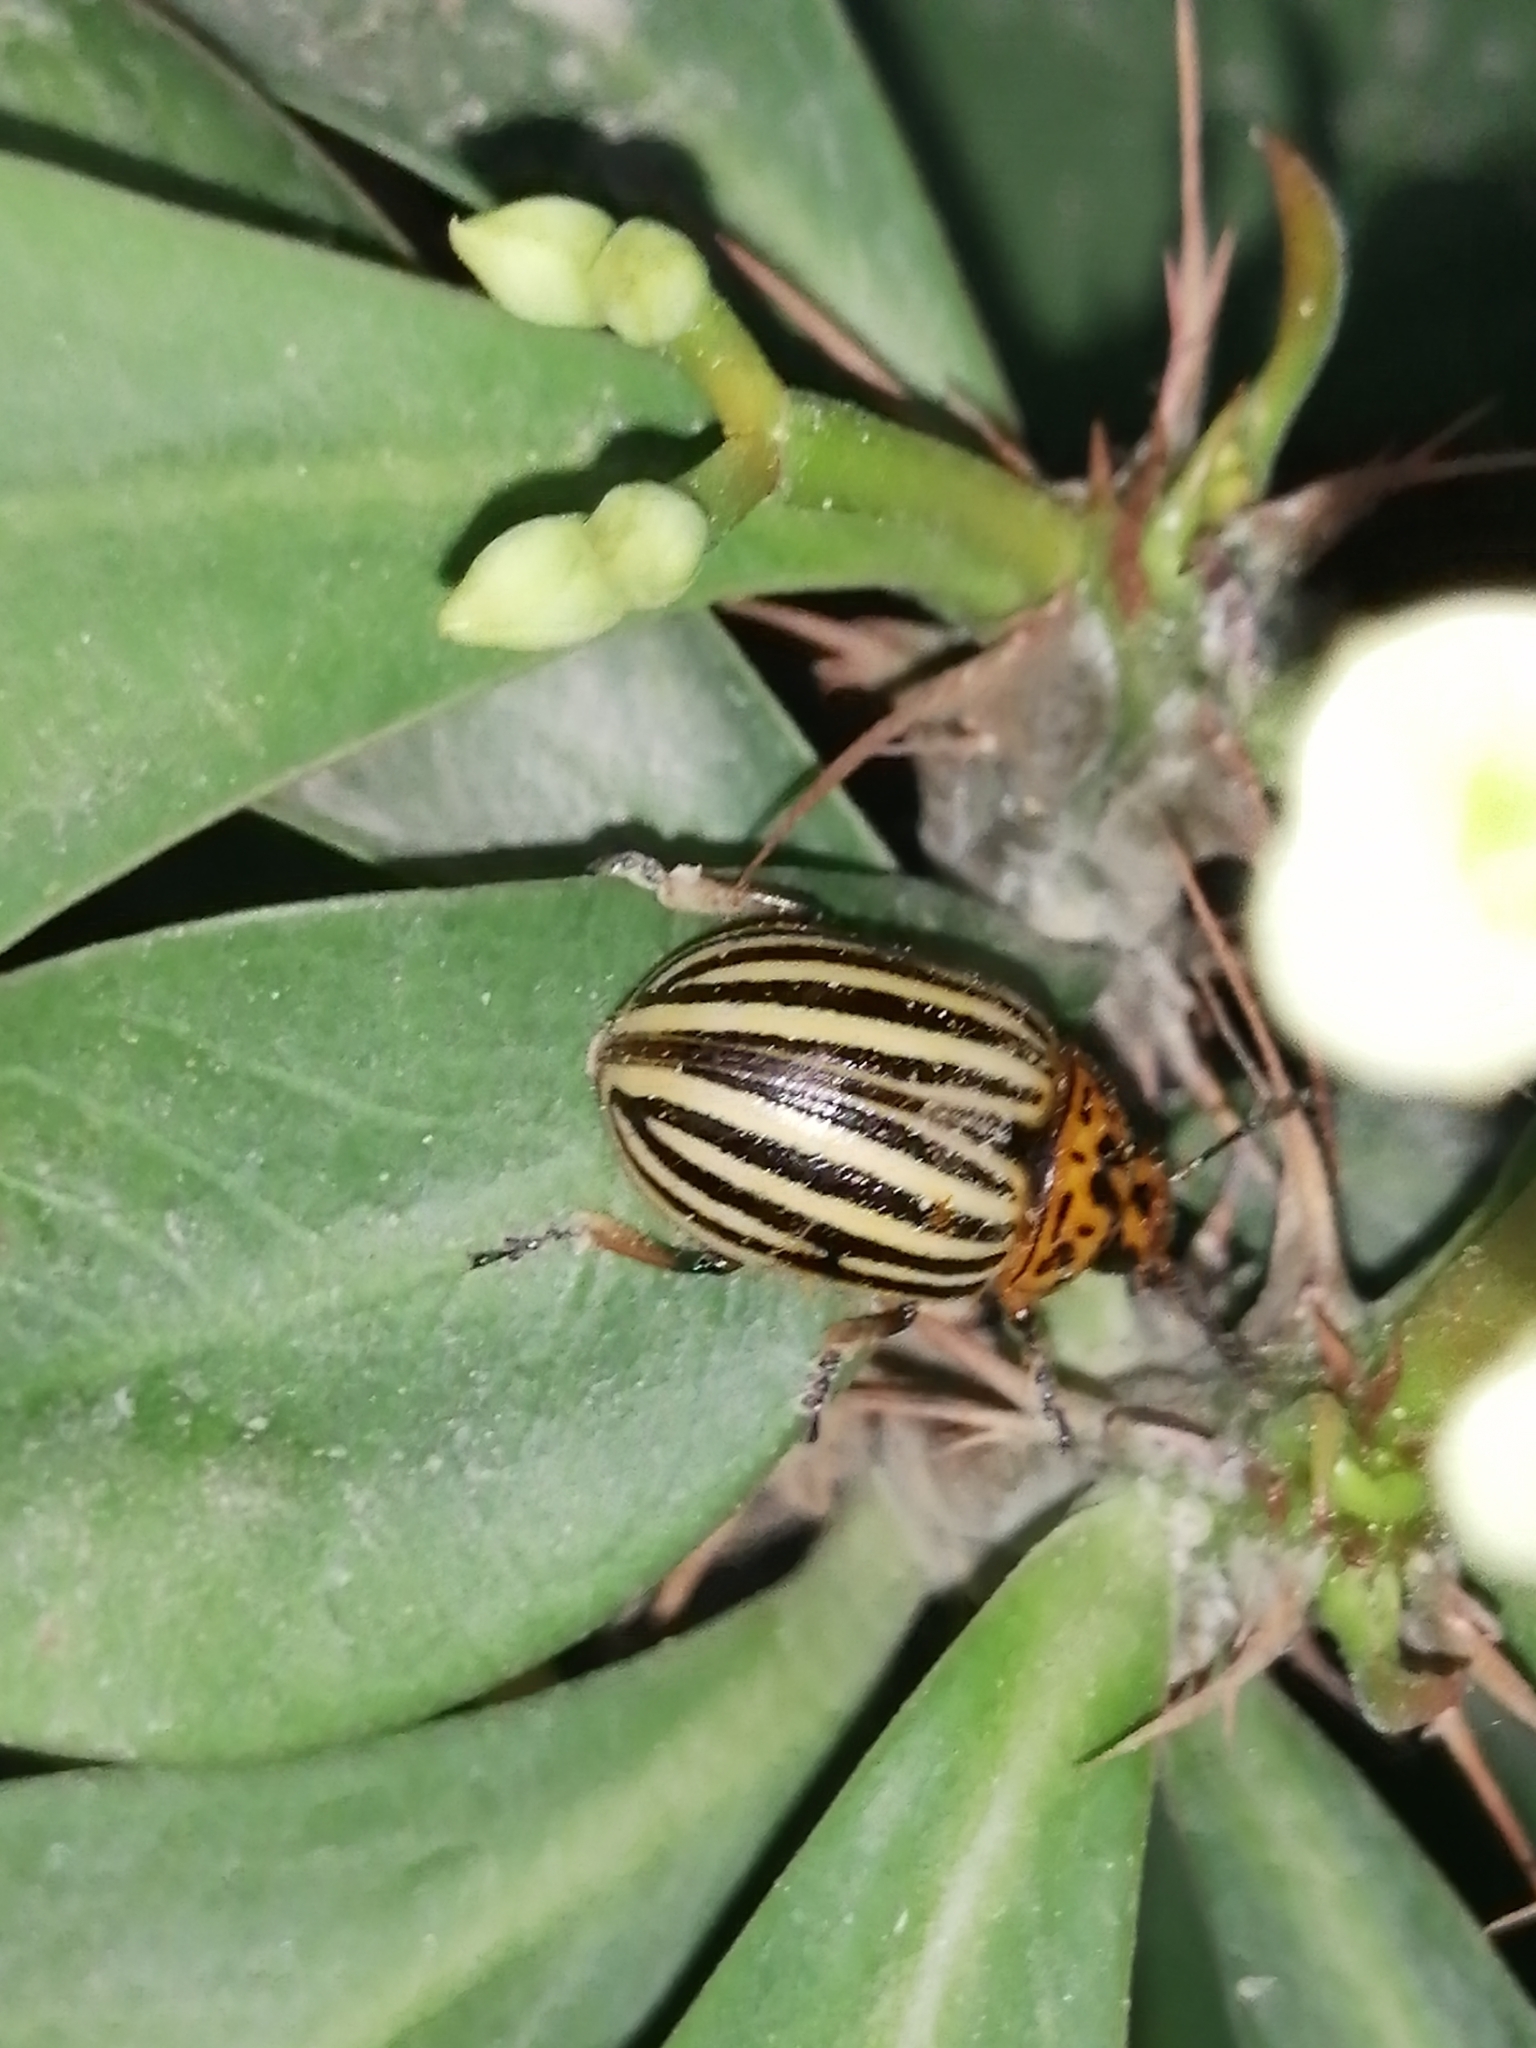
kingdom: Animalia
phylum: Arthropoda
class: Insecta
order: Coleoptera
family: Chrysomelidae
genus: Leptinotarsa
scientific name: Leptinotarsa decemlineata
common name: Colorado potato beetle
